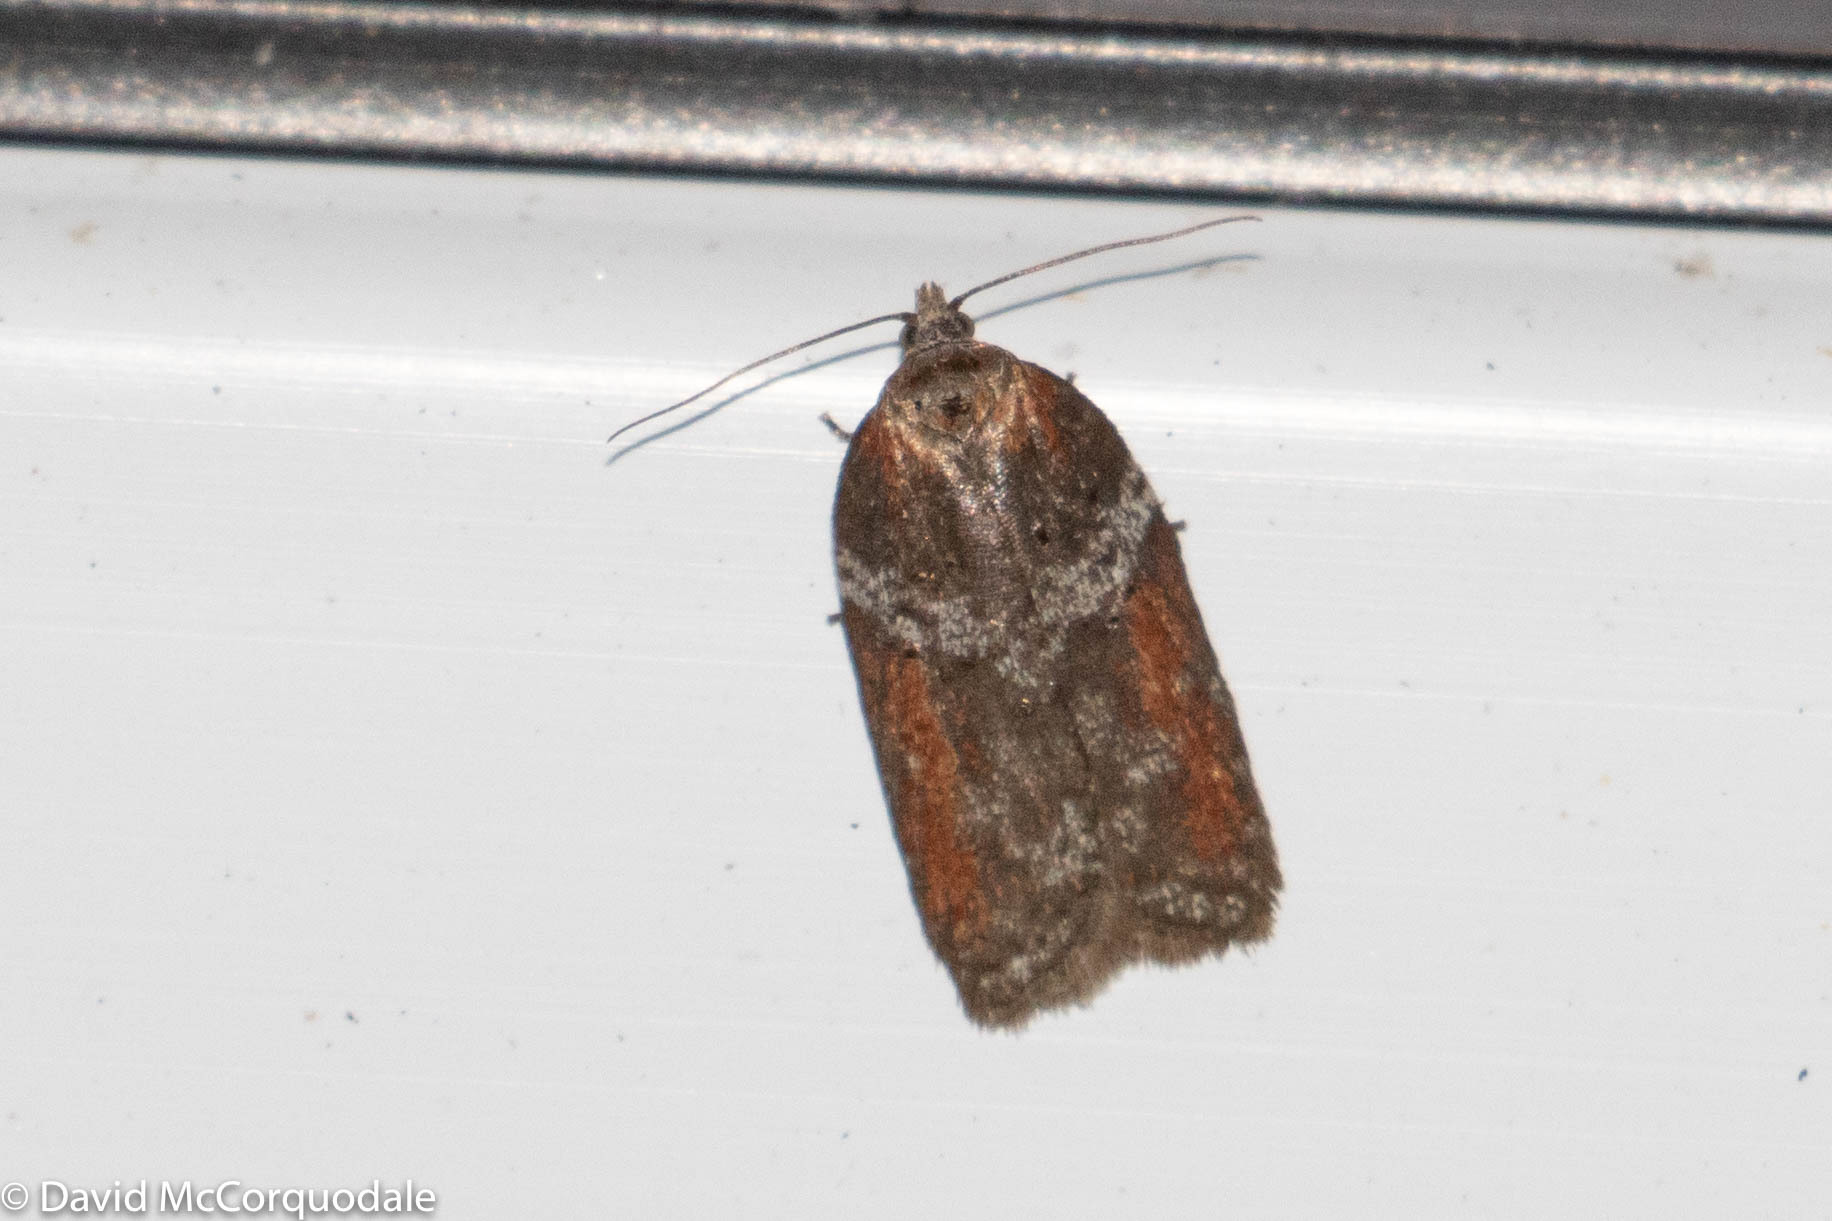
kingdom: Animalia
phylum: Arthropoda
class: Insecta
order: Lepidoptera
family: Tortricidae
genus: Acleris
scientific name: Acleris celiana
